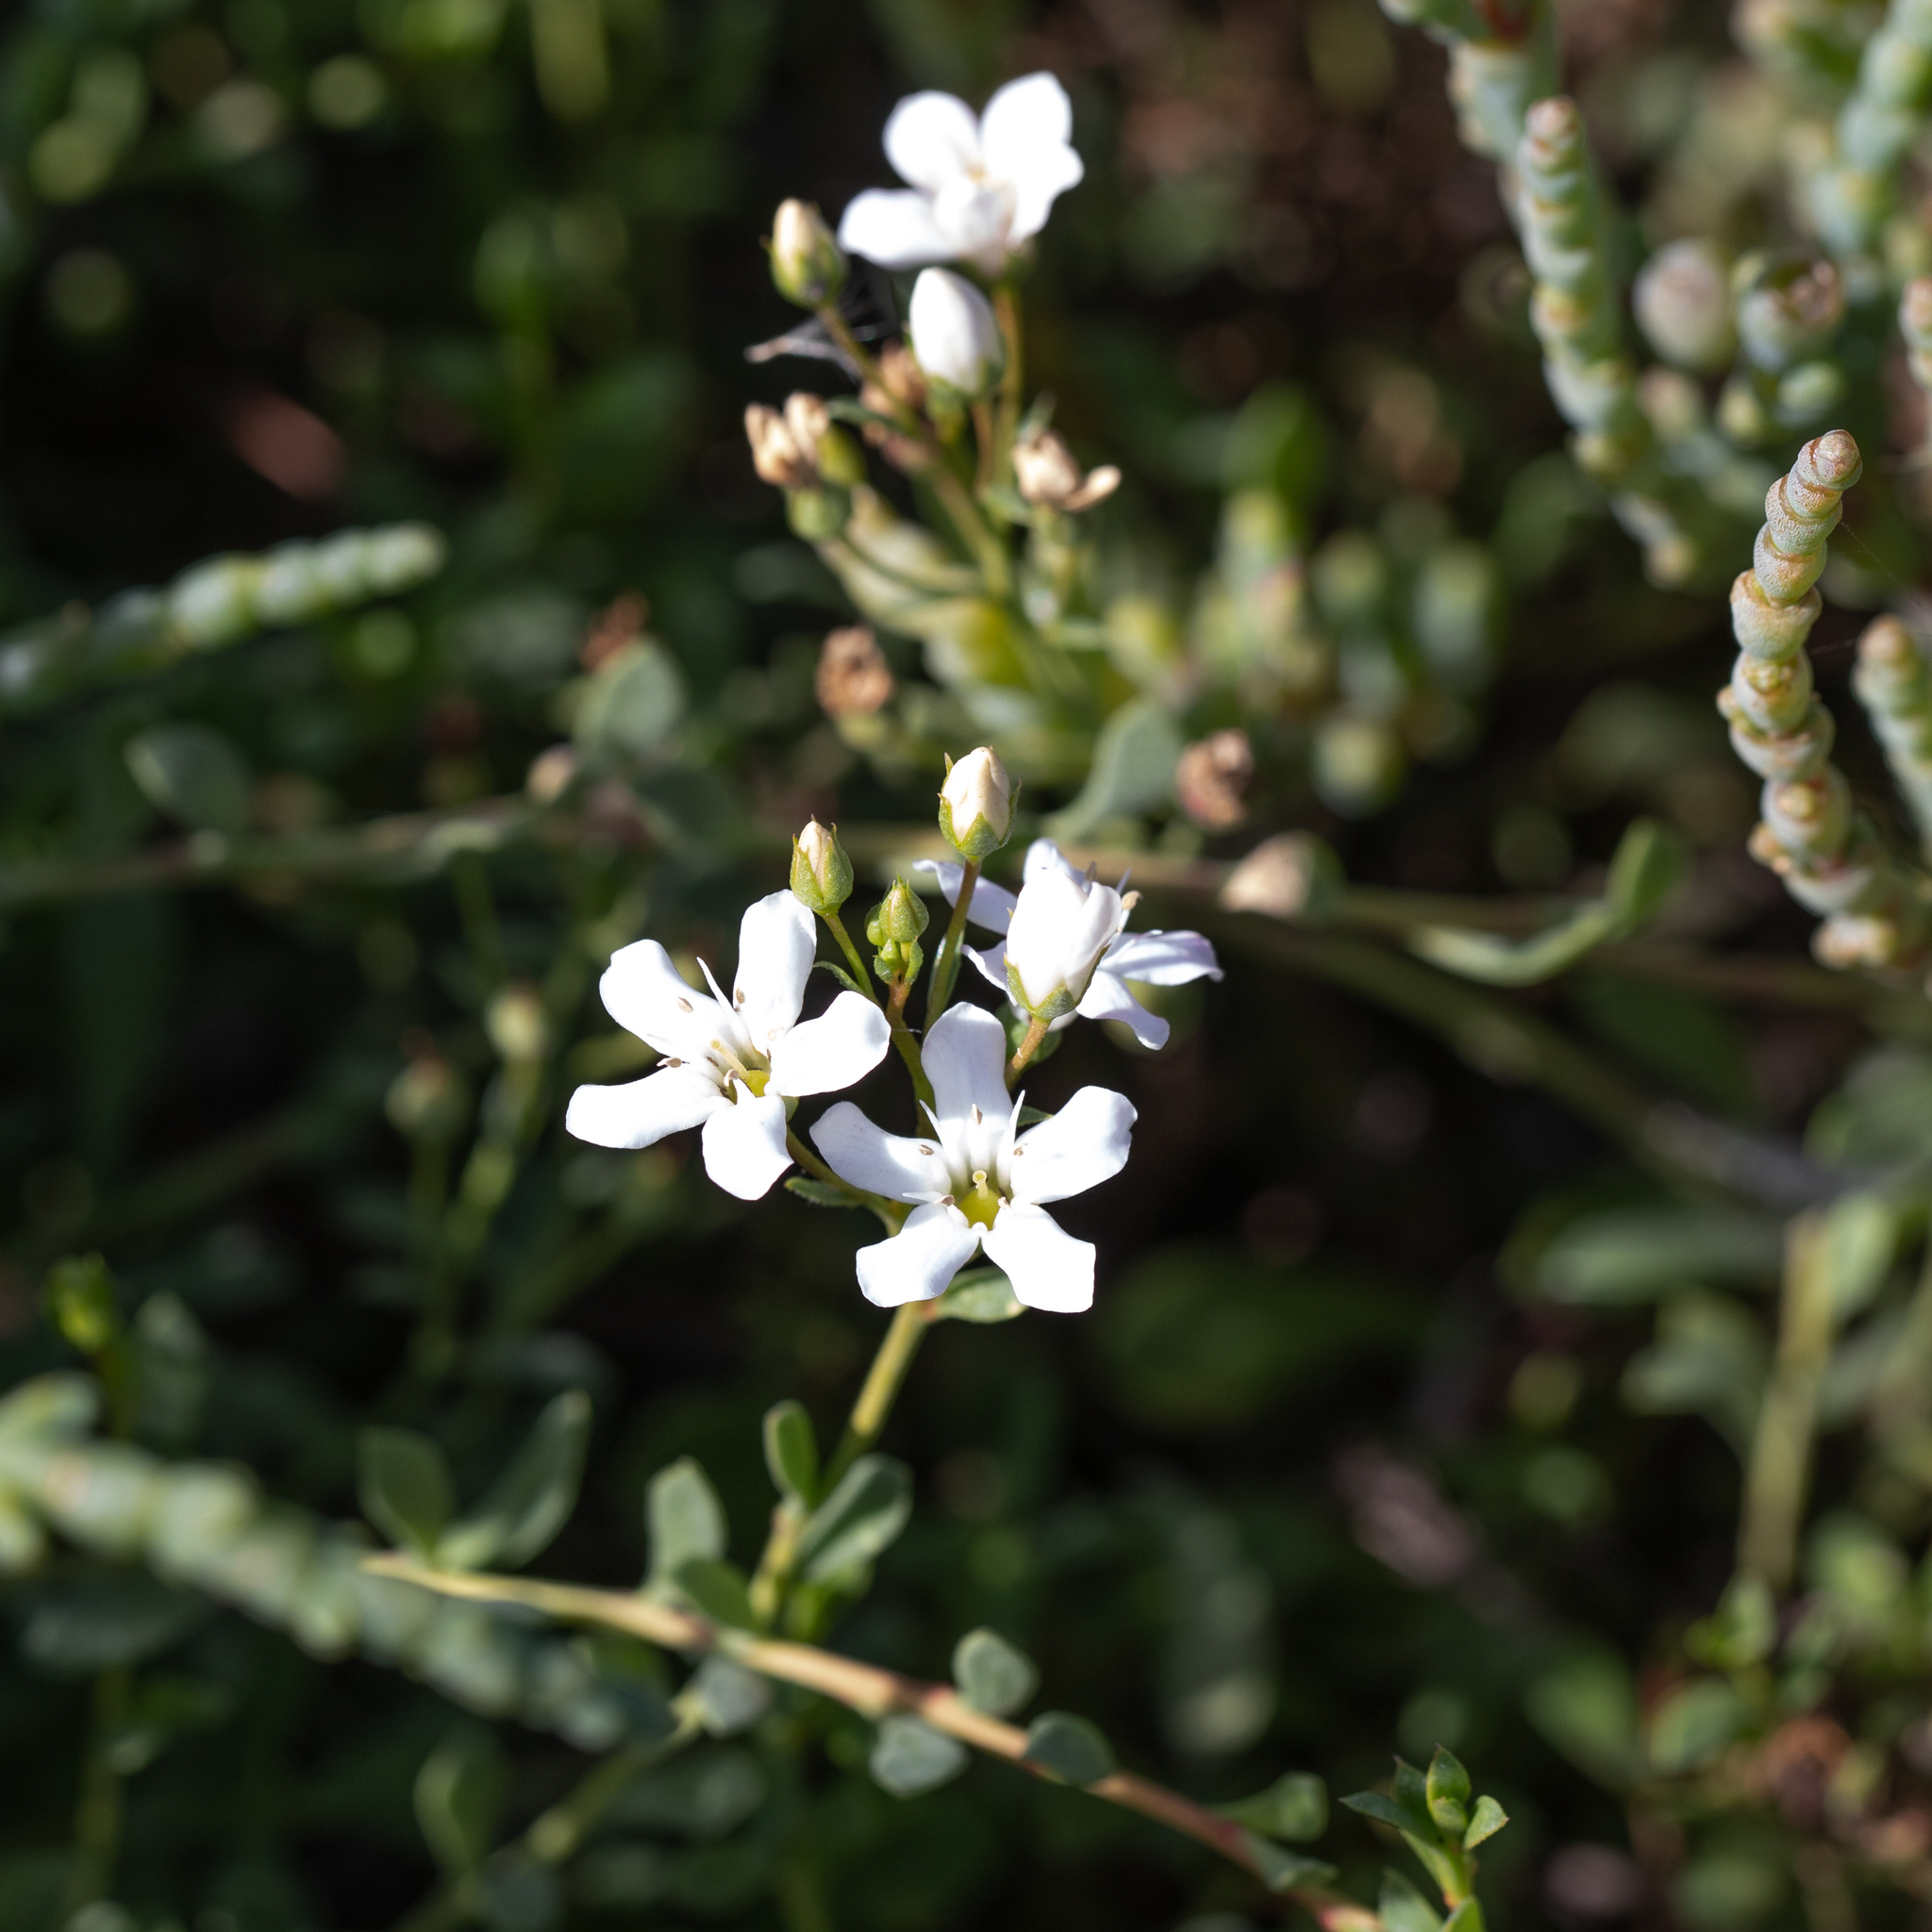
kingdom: Plantae
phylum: Tracheophyta
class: Magnoliopsida
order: Ericales
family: Primulaceae
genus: Samolus
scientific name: Samolus repens
